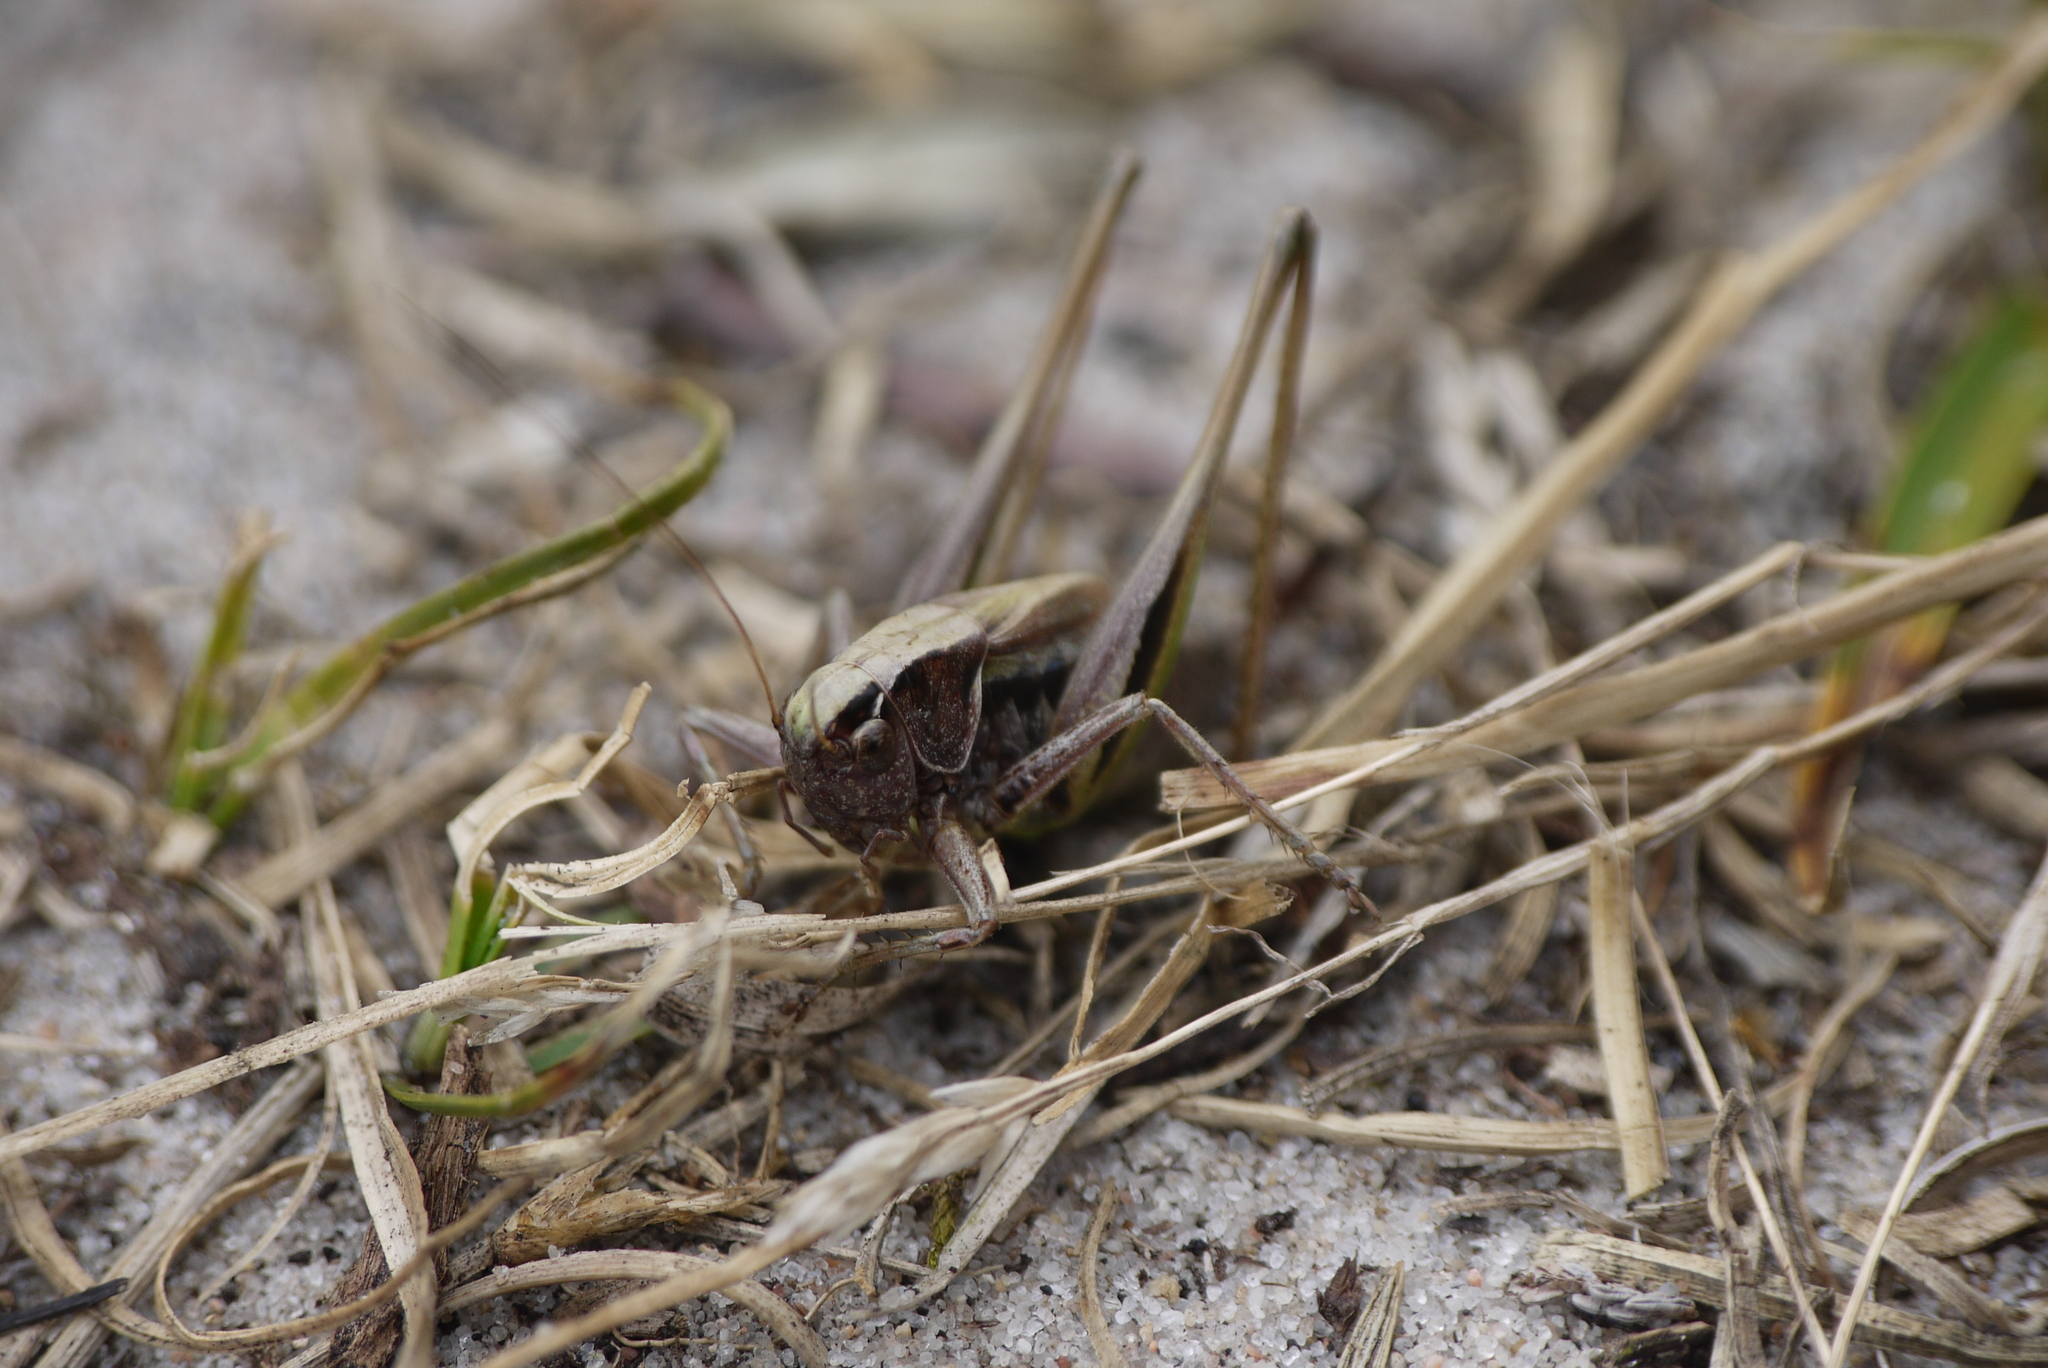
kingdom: Animalia
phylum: Arthropoda
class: Insecta
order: Orthoptera
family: Tettigoniidae
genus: Metrioptera
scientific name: Metrioptera brachyptera
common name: Bog bush-cricket
